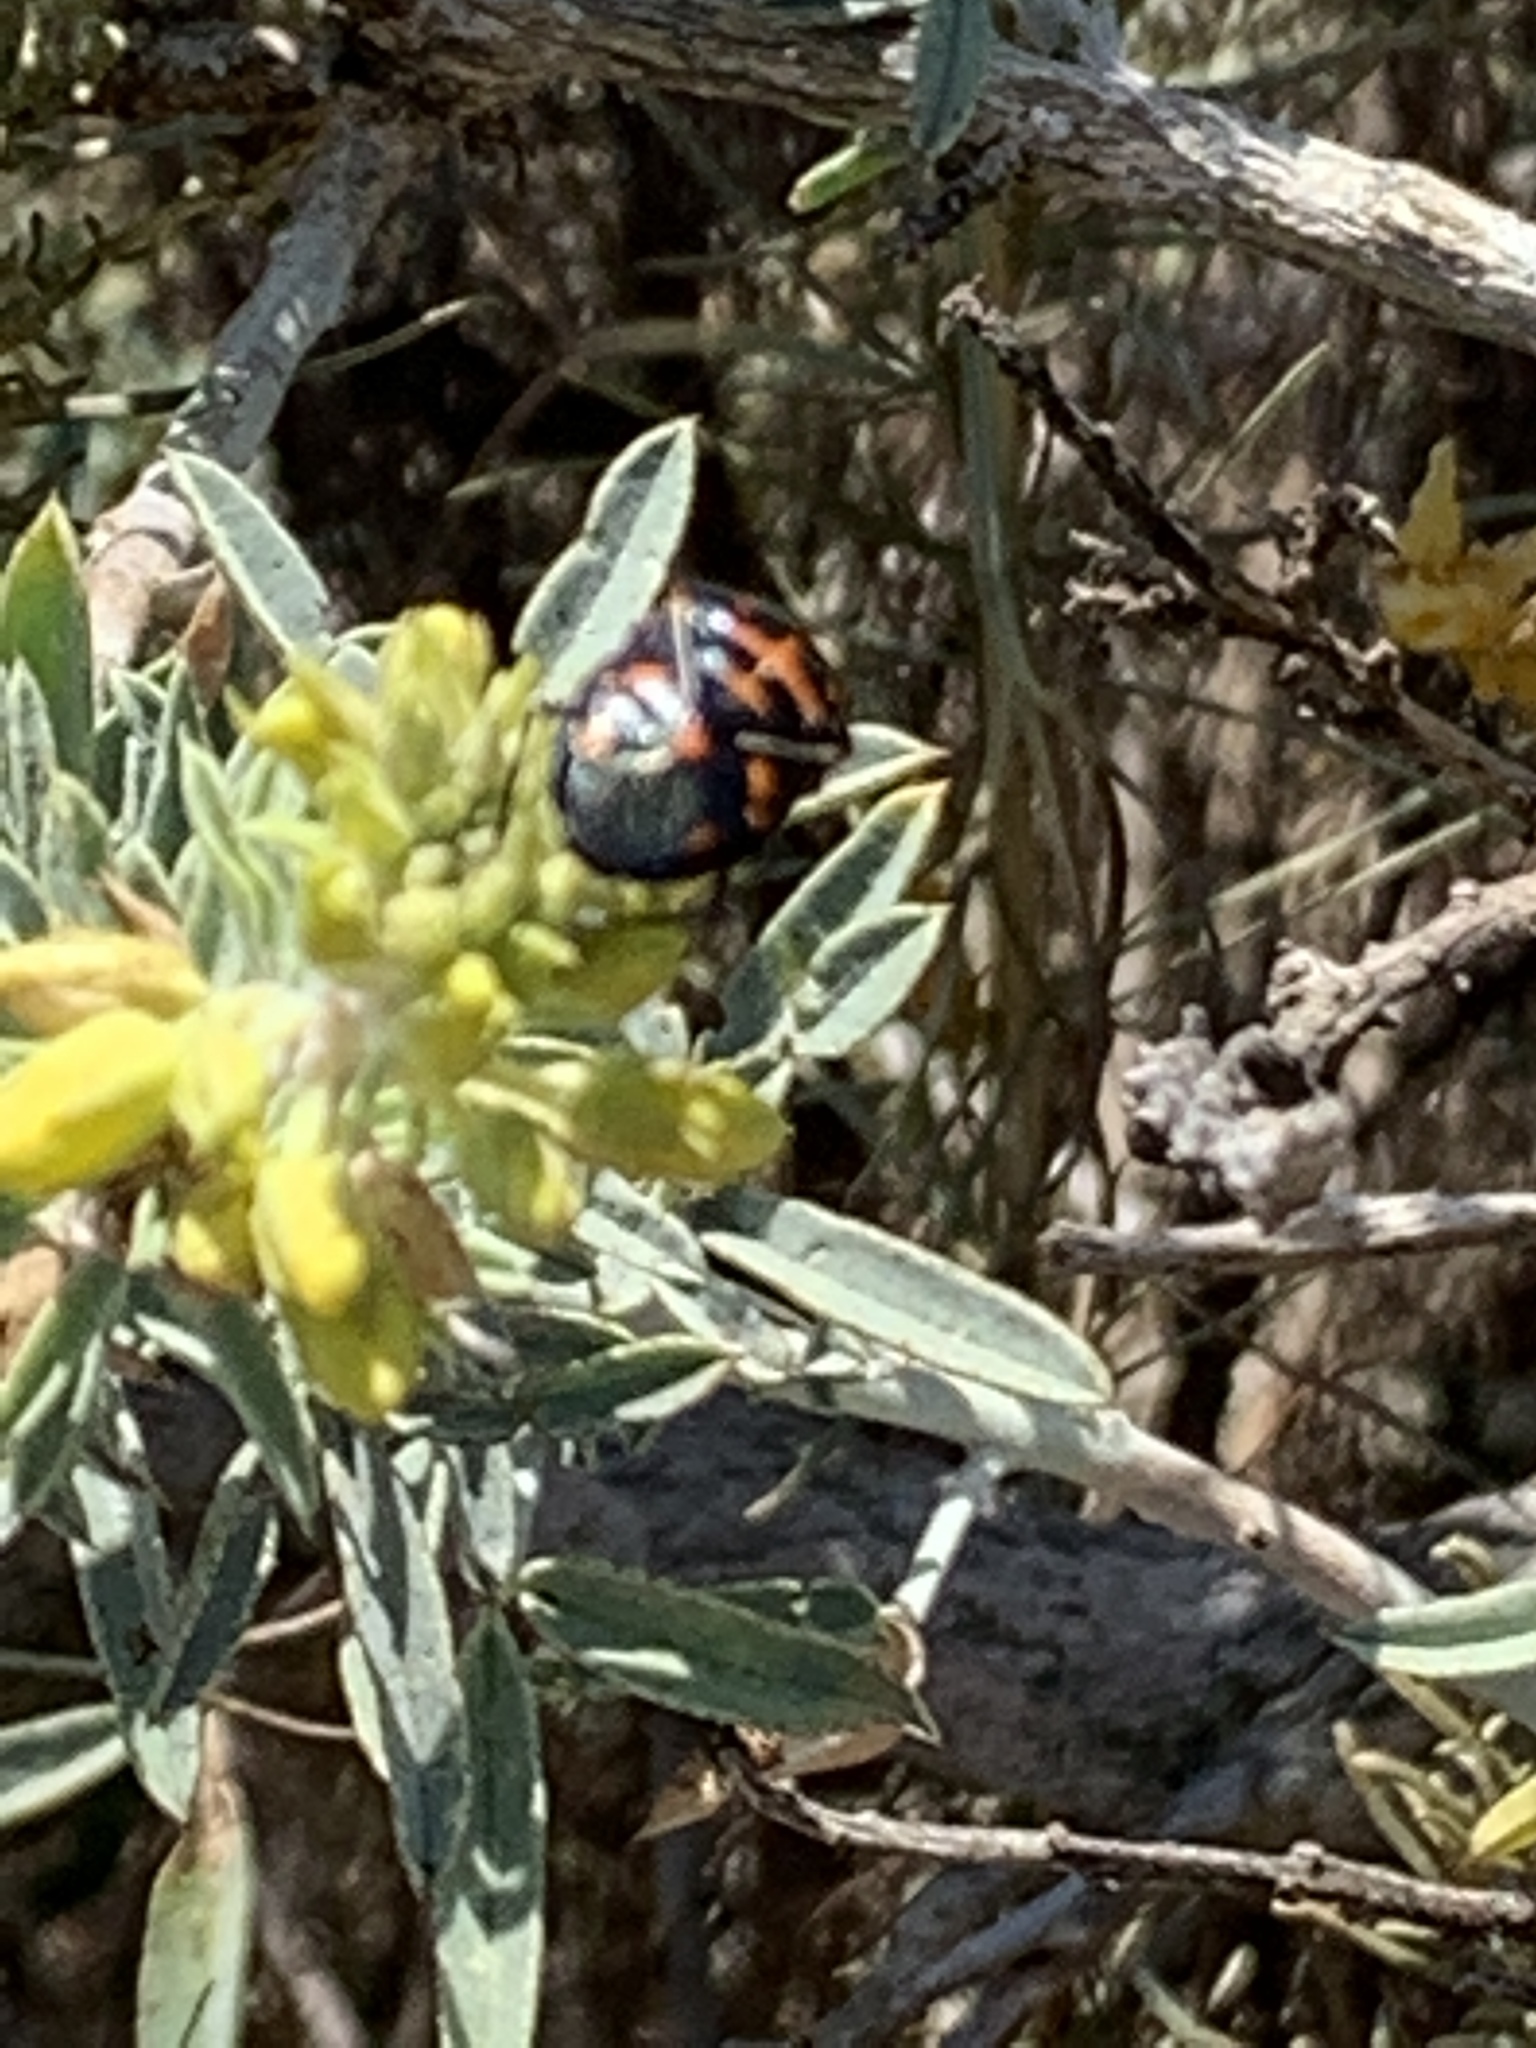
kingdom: Animalia
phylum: Arthropoda
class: Insecta
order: Hemiptera
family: Pentatomidae
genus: Murgantia
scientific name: Murgantia histrionica
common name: Harlequin bug
